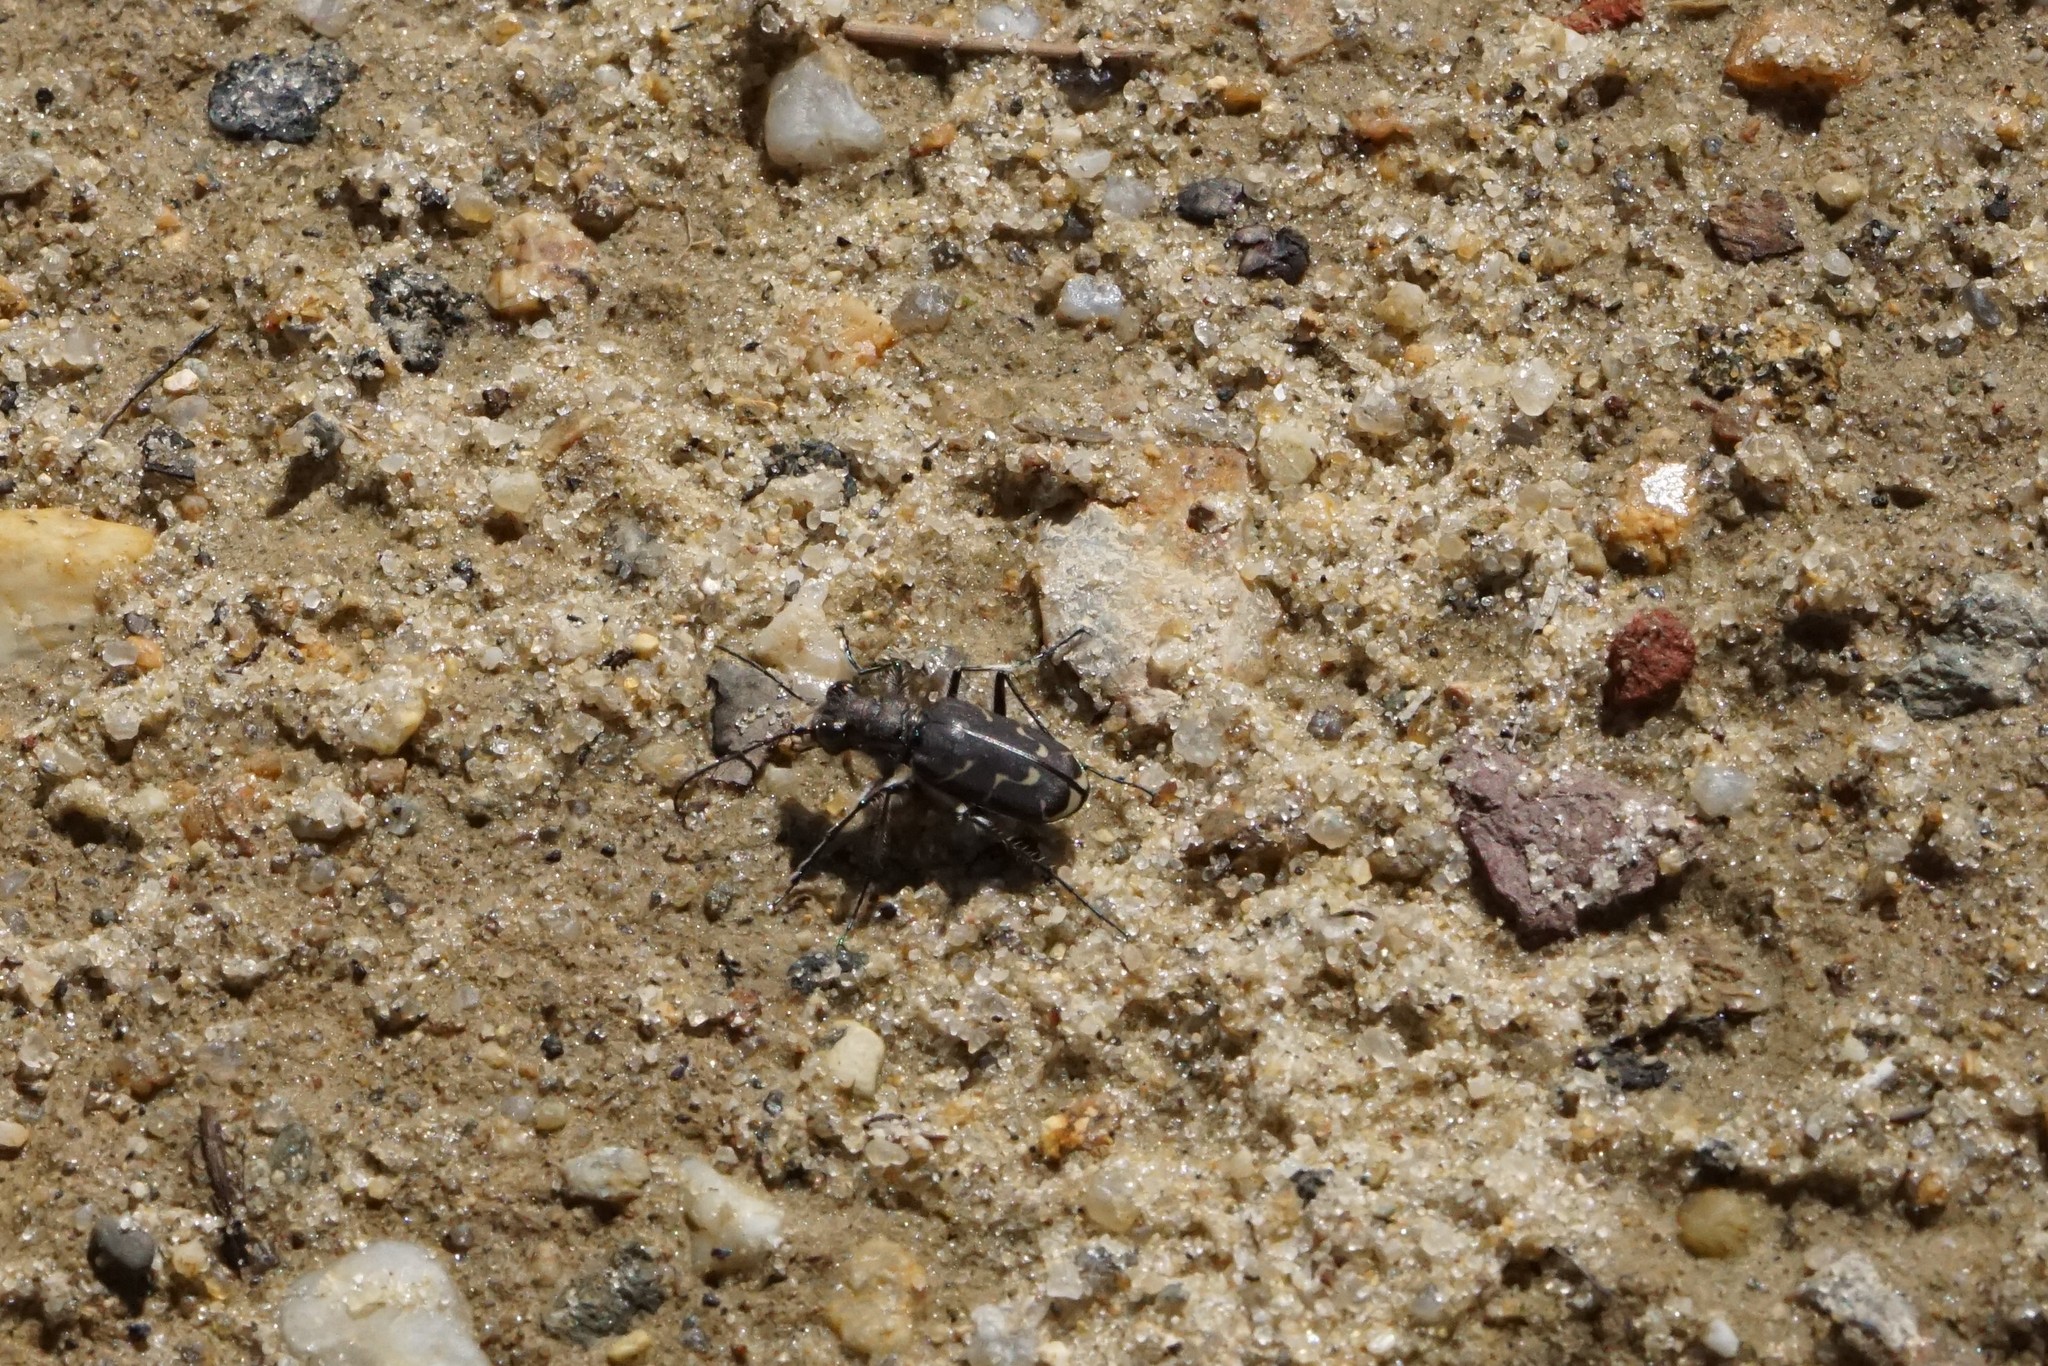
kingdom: Animalia
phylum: Arthropoda
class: Insecta
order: Coleoptera
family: Carabidae
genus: Cicindela
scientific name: Cicindela tranquebarica
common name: Oblique-lined tiger beetle
